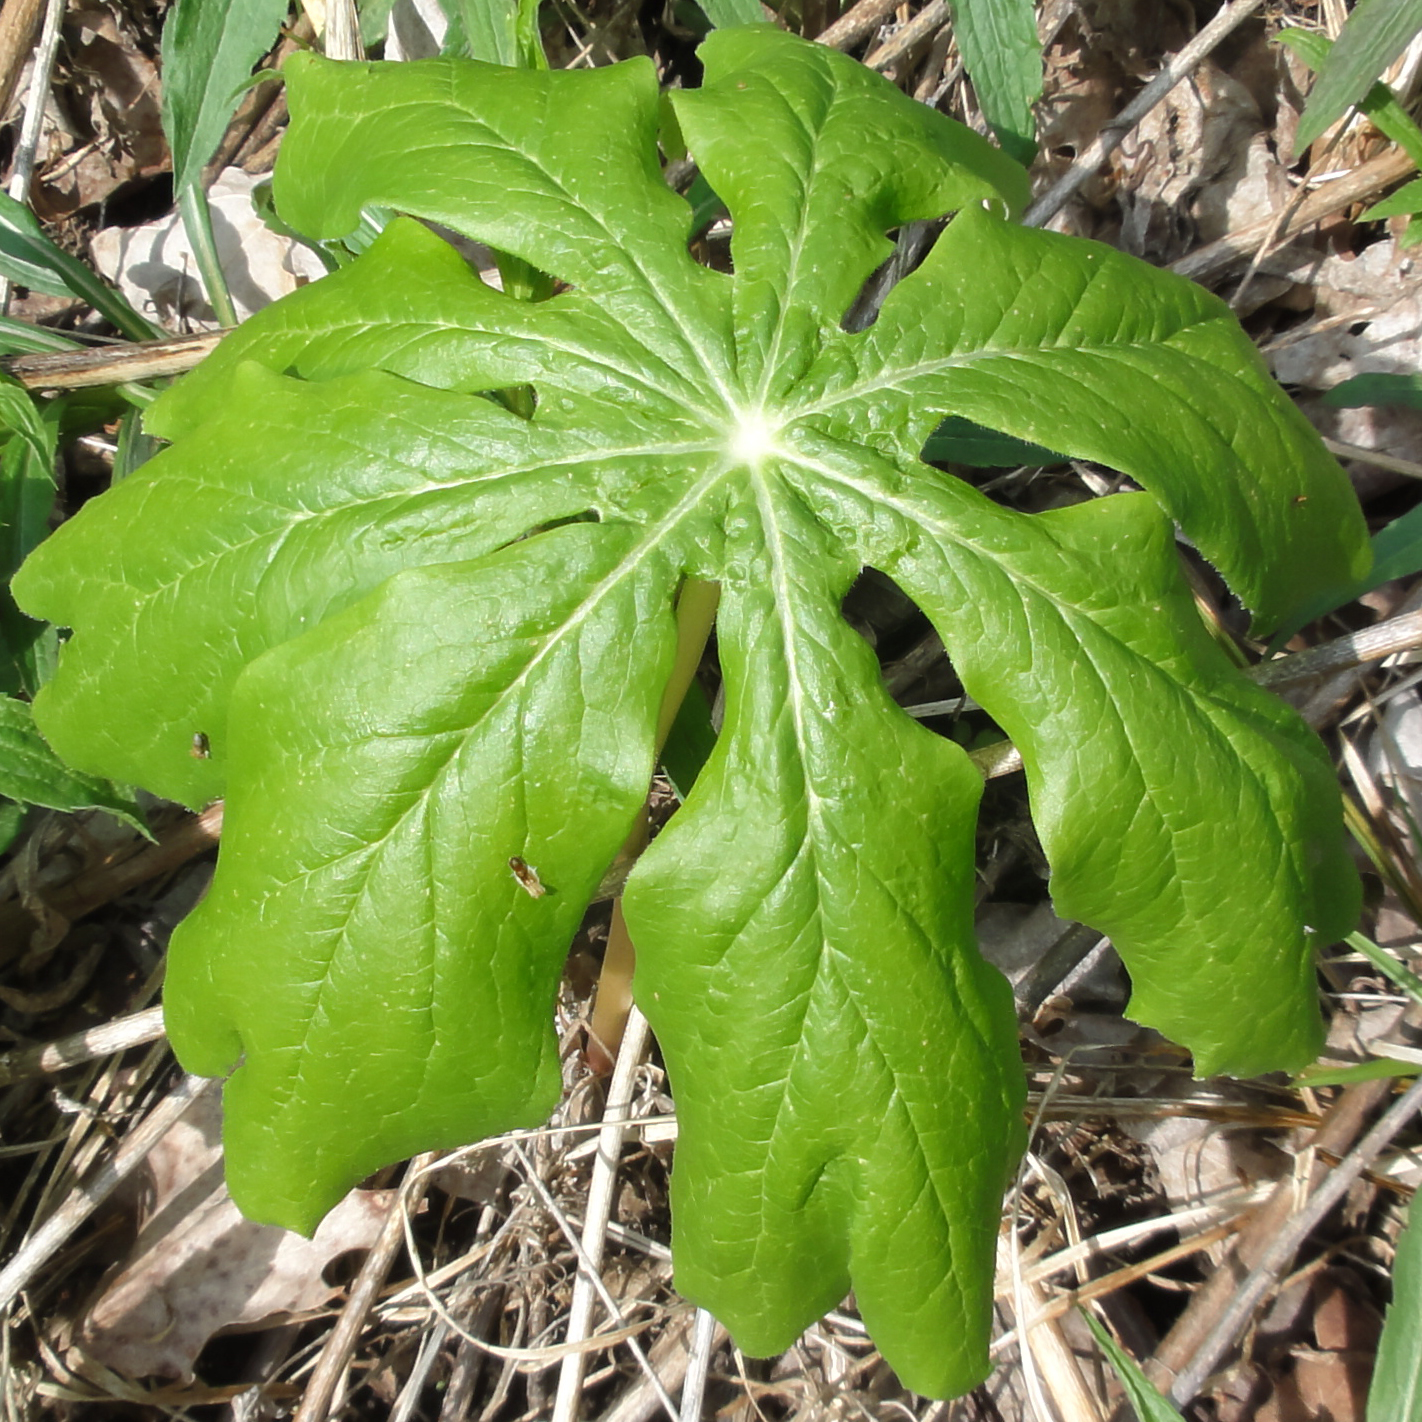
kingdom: Plantae
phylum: Tracheophyta
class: Magnoliopsida
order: Ranunculales
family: Berberidaceae
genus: Podophyllum
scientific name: Podophyllum peltatum
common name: Wild mandrake
